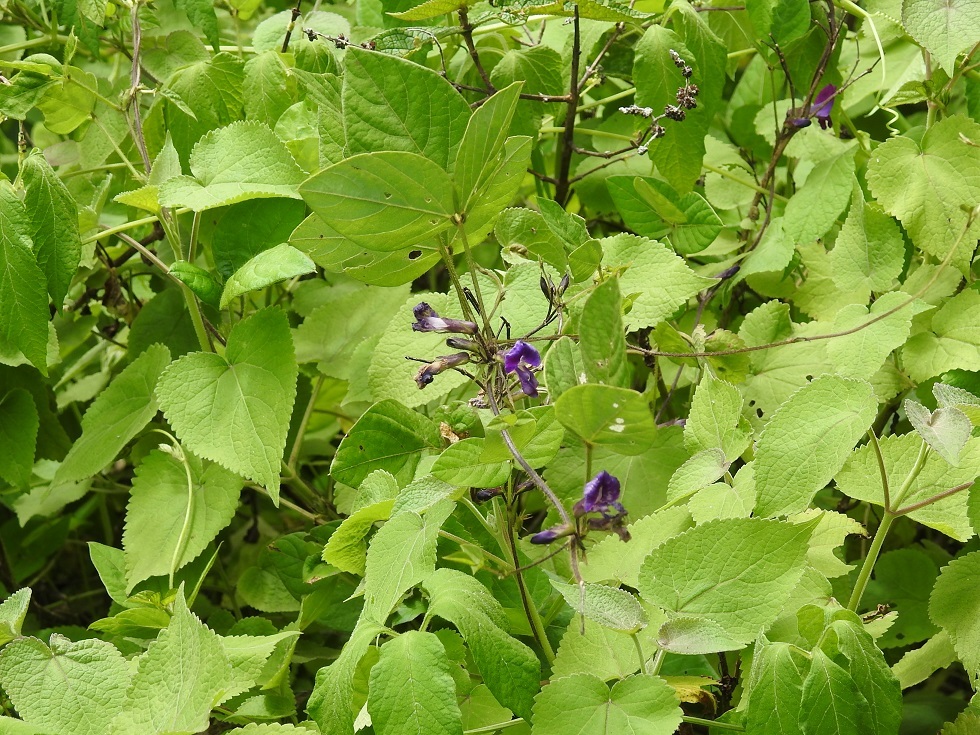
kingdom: Plantae
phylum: Tracheophyta
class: Magnoliopsida
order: Fabales
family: Fabaceae
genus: Cologania
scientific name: Cologania broussonetii
